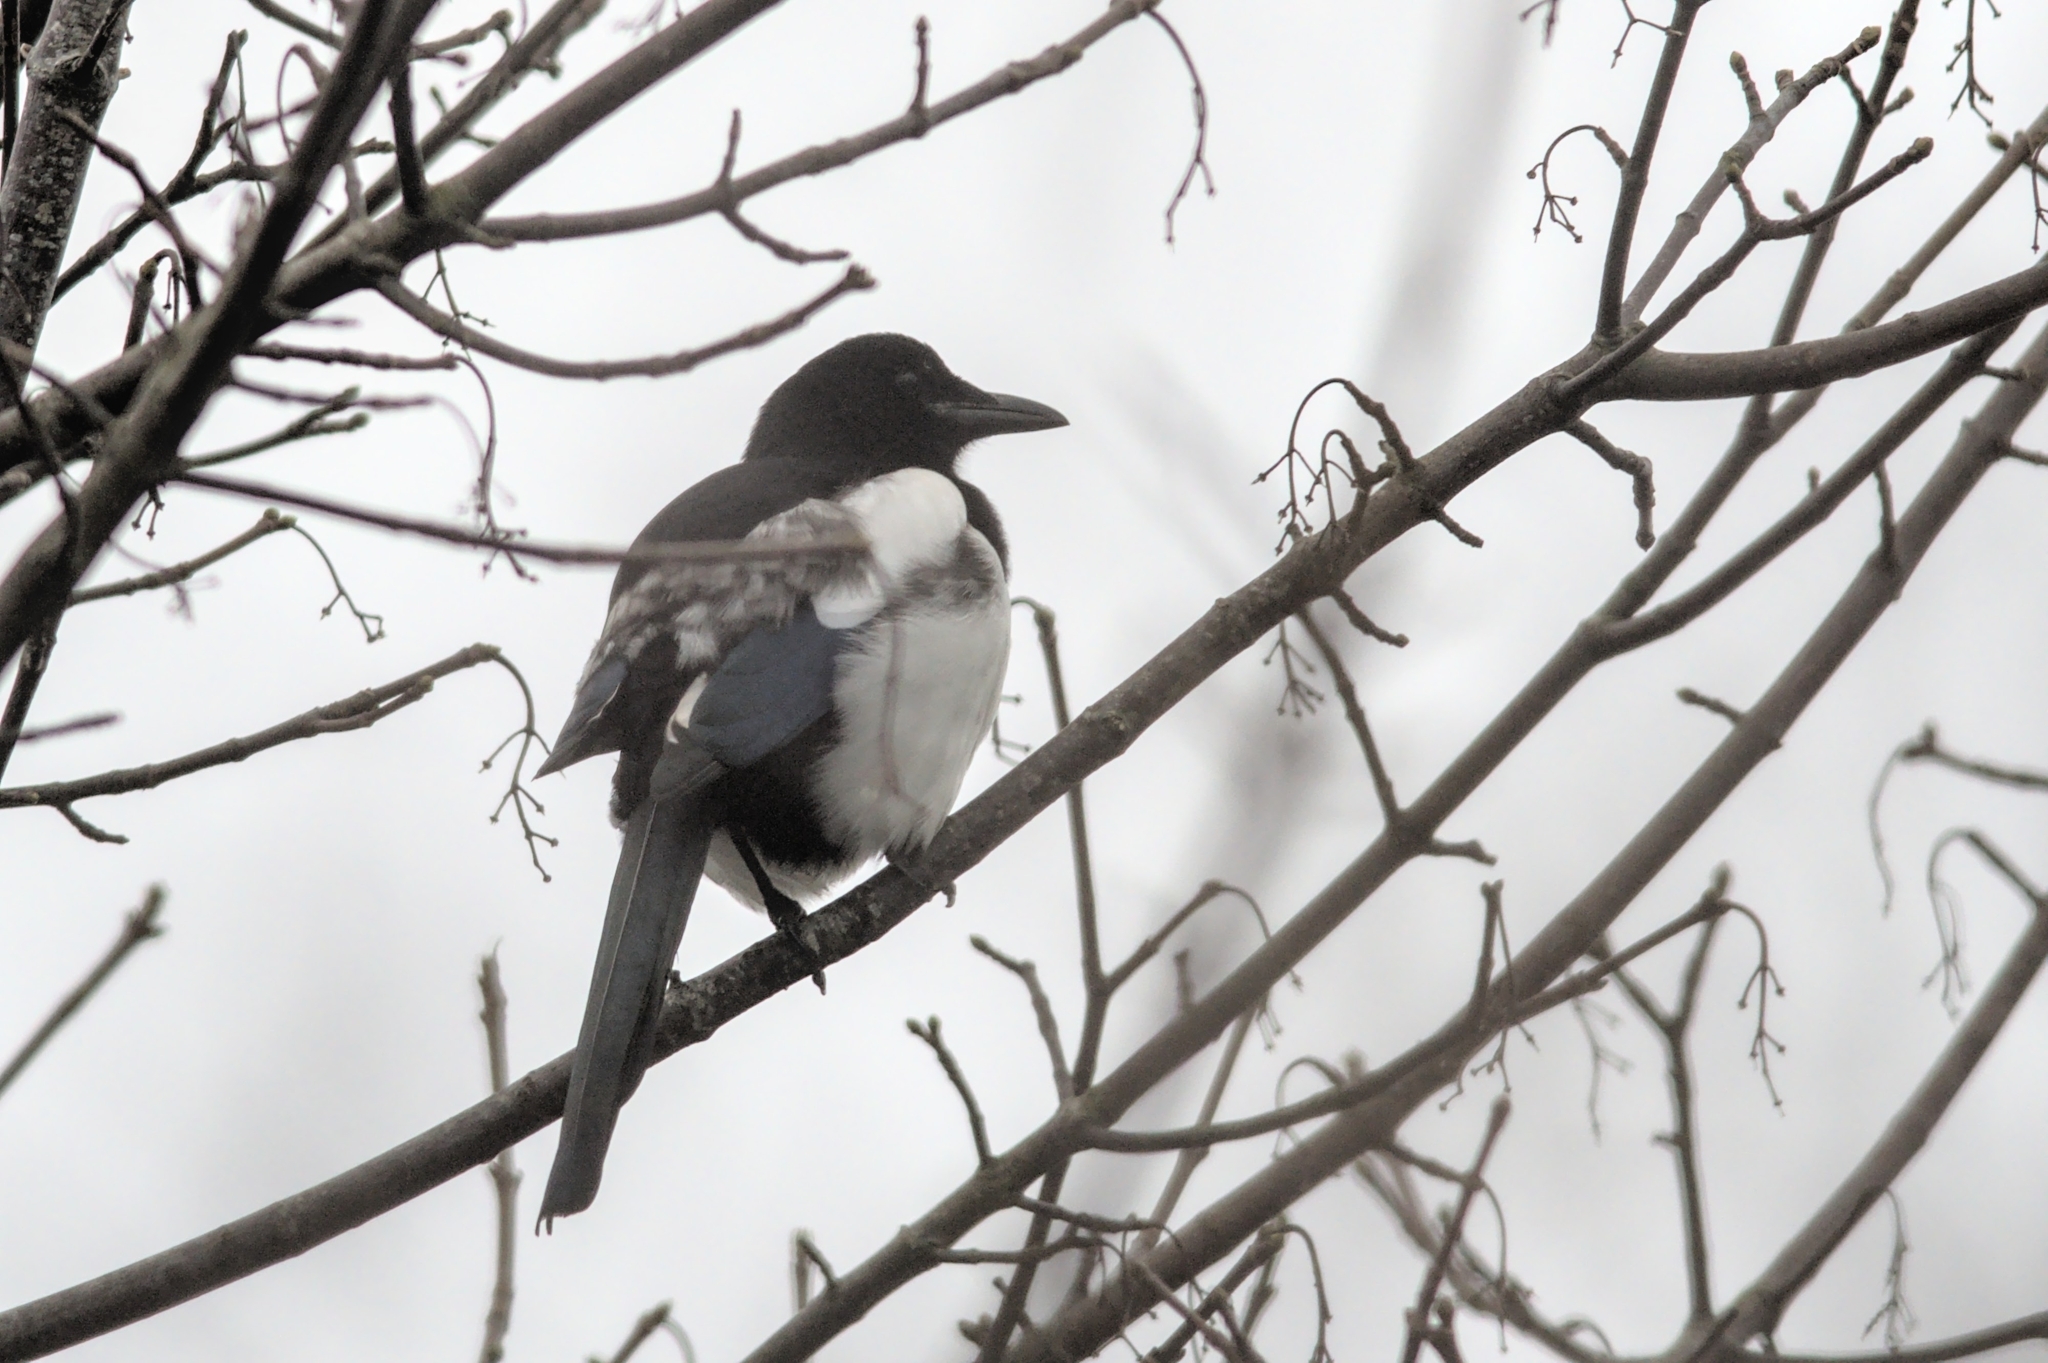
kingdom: Animalia
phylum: Chordata
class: Aves
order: Passeriformes
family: Corvidae
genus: Pica
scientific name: Pica pica
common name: Eurasian magpie
